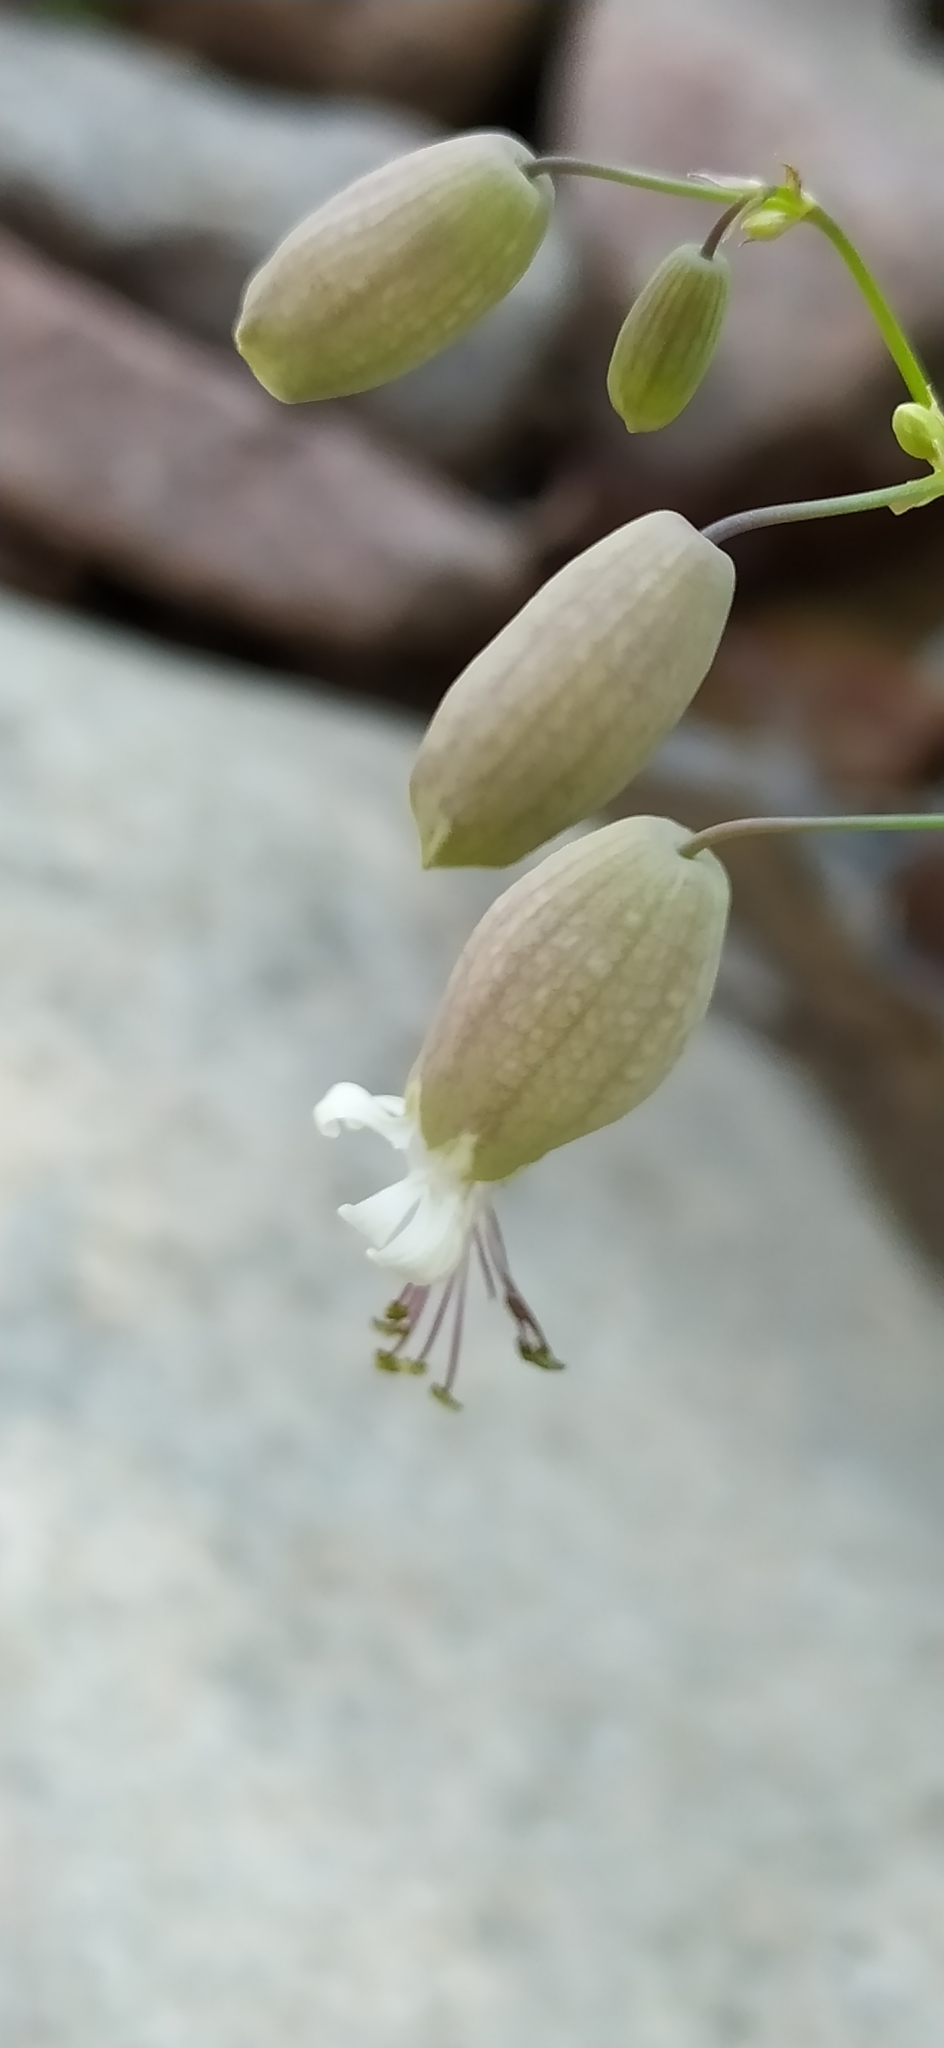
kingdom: Plantae
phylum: Tracheophyta
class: Magnoliopsida
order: Caryophyllales
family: Caryophyllaceae
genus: Silene
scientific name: Silene vulgaris
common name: Bladder campion
